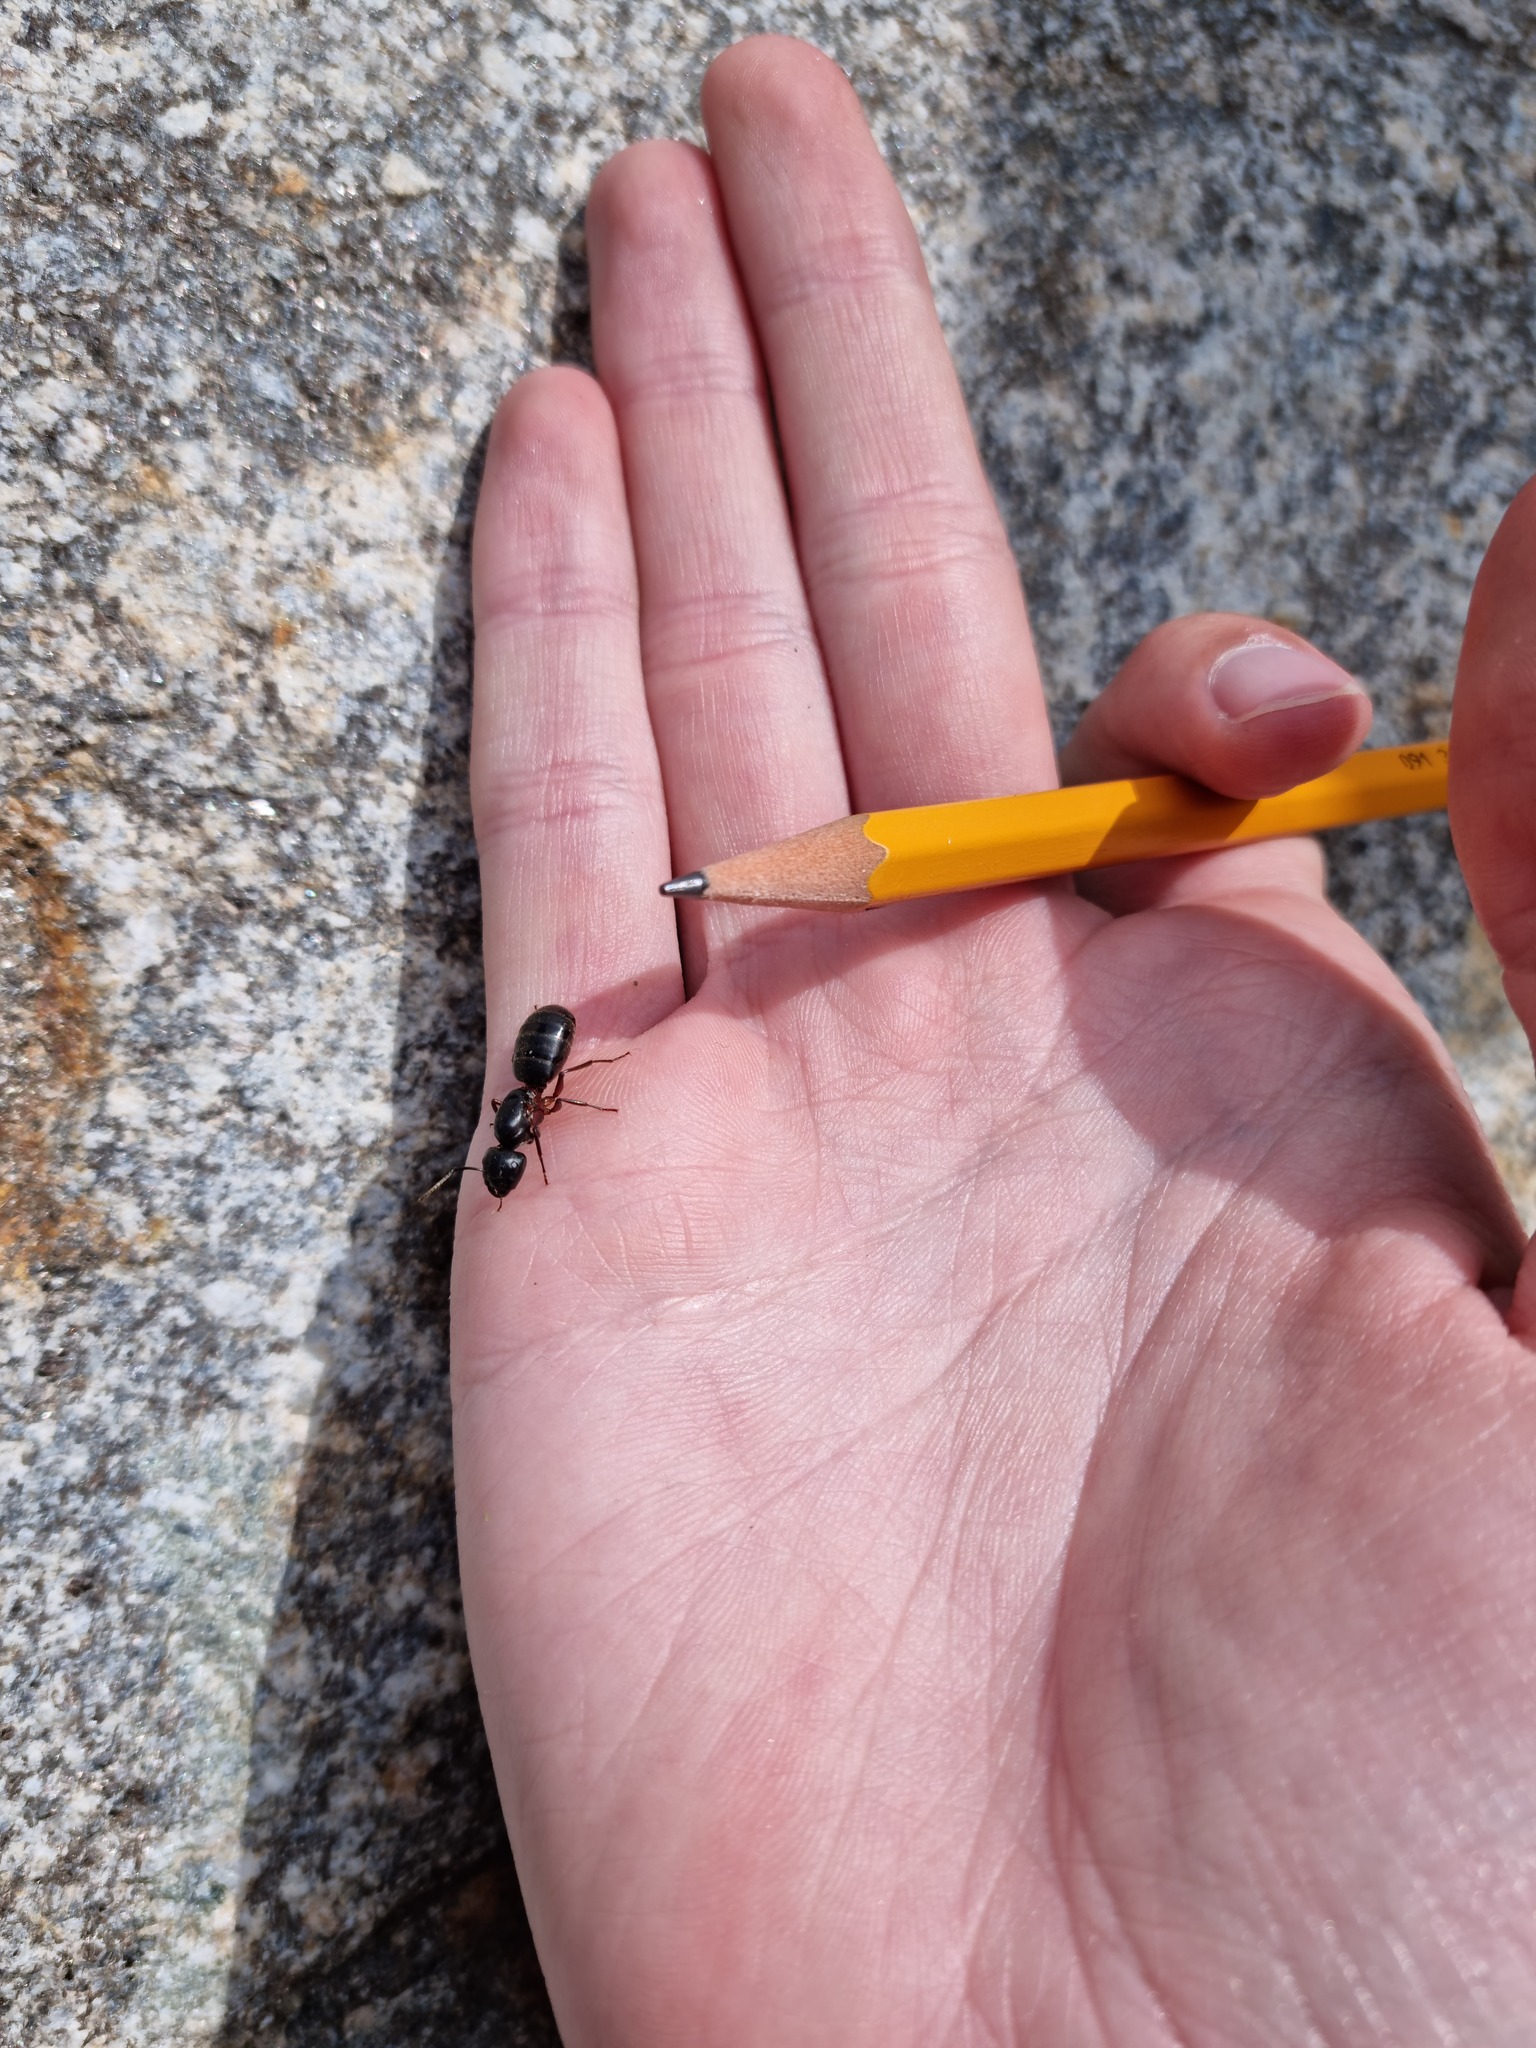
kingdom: Animalia
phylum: Arthropoda
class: Insecta
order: Hymenoptera
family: Formicidae
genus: Camponotus
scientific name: Camponotus herculeanus
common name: Hercules ant
